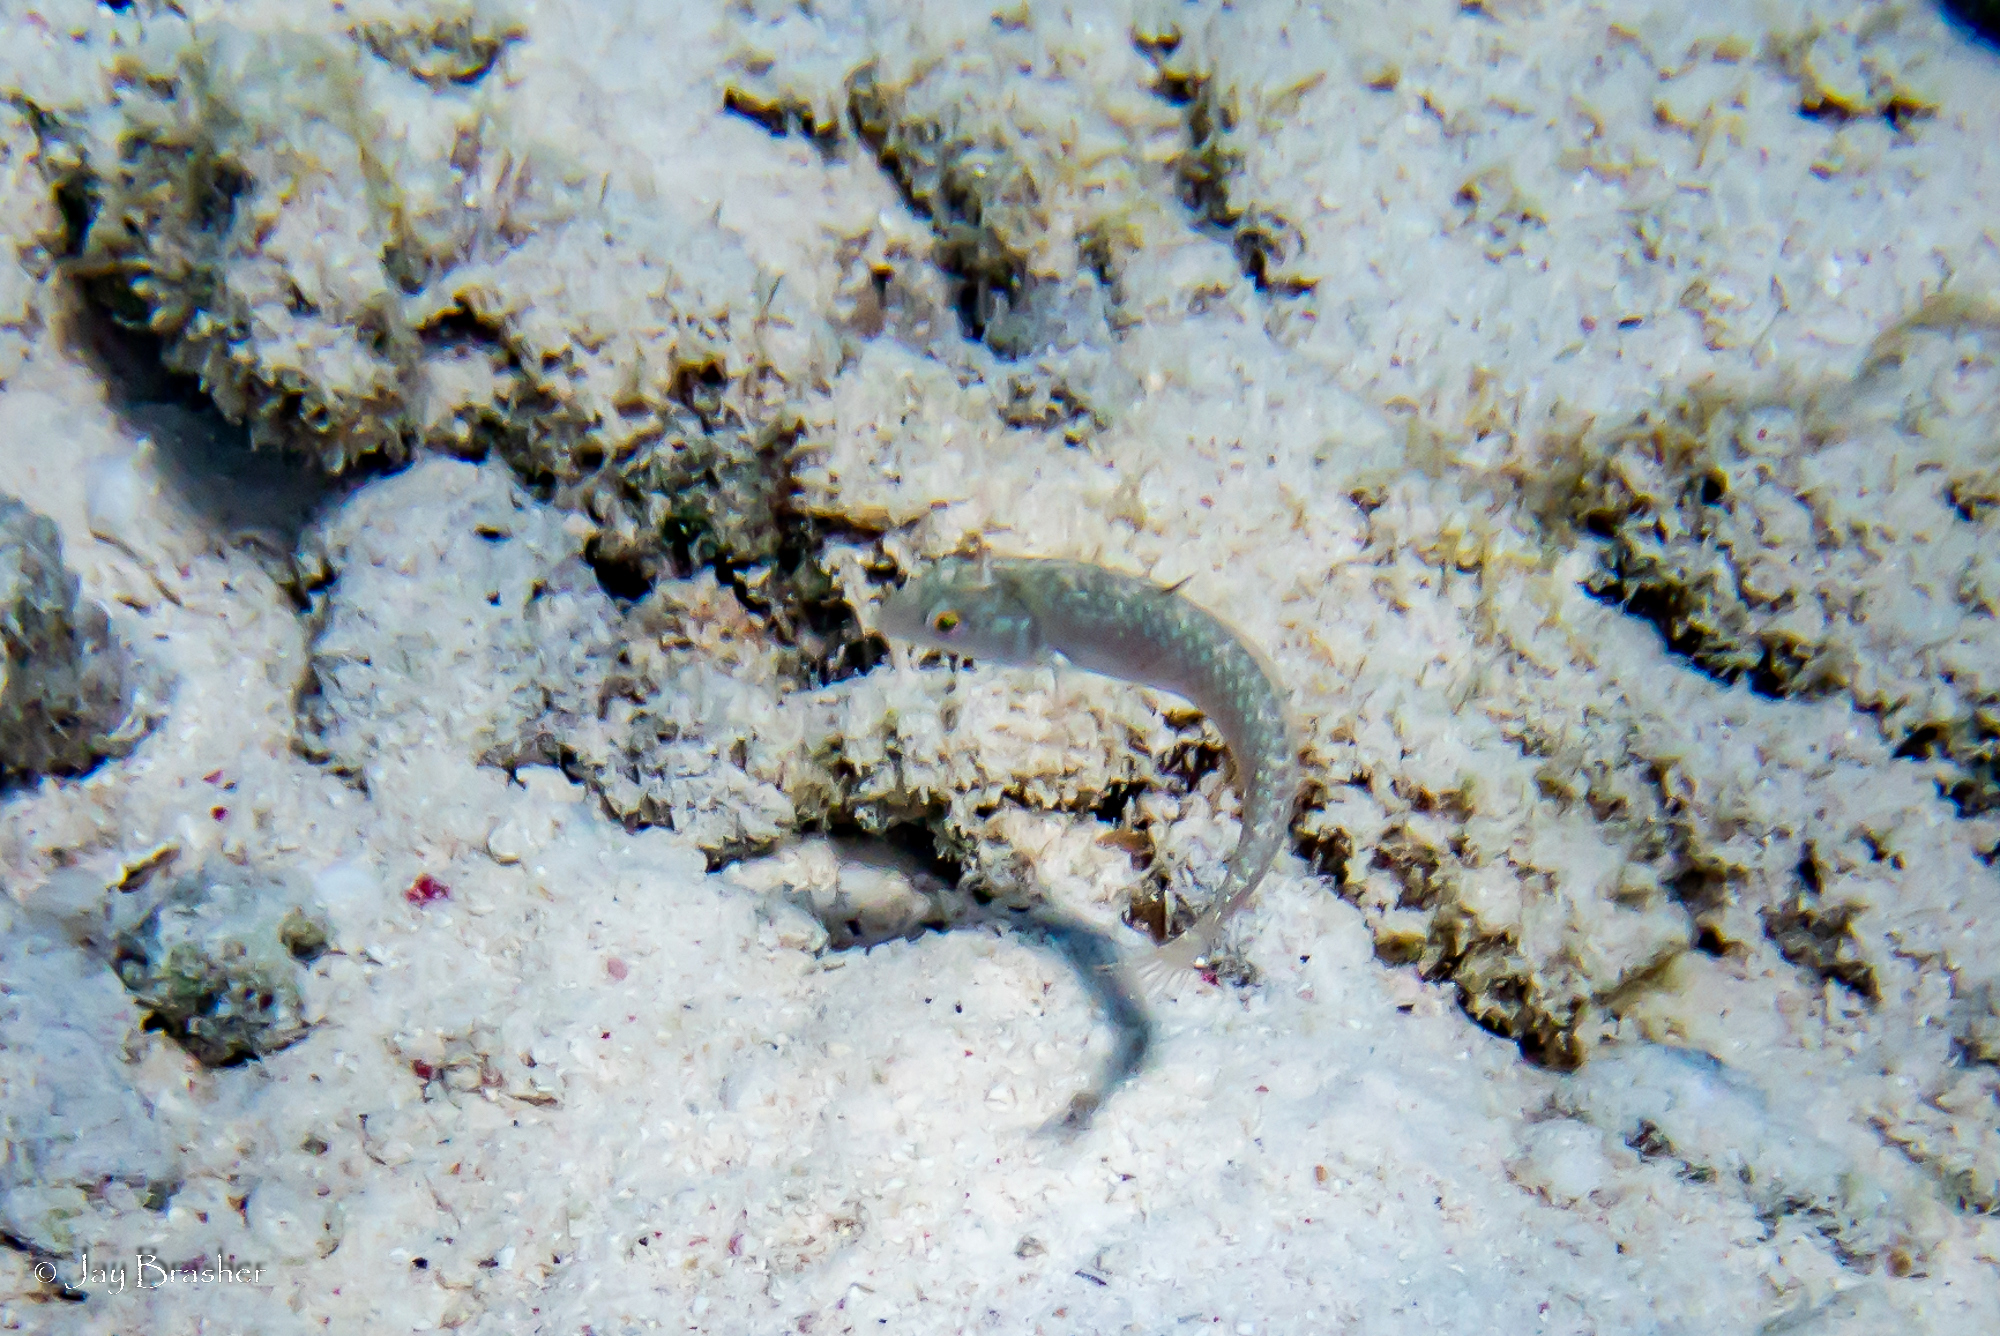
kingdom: Animalia
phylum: Chordata
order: Perciformes
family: Labridae
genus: Xyrichtys
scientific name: Xyrichtys splendens
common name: Green razorfish
